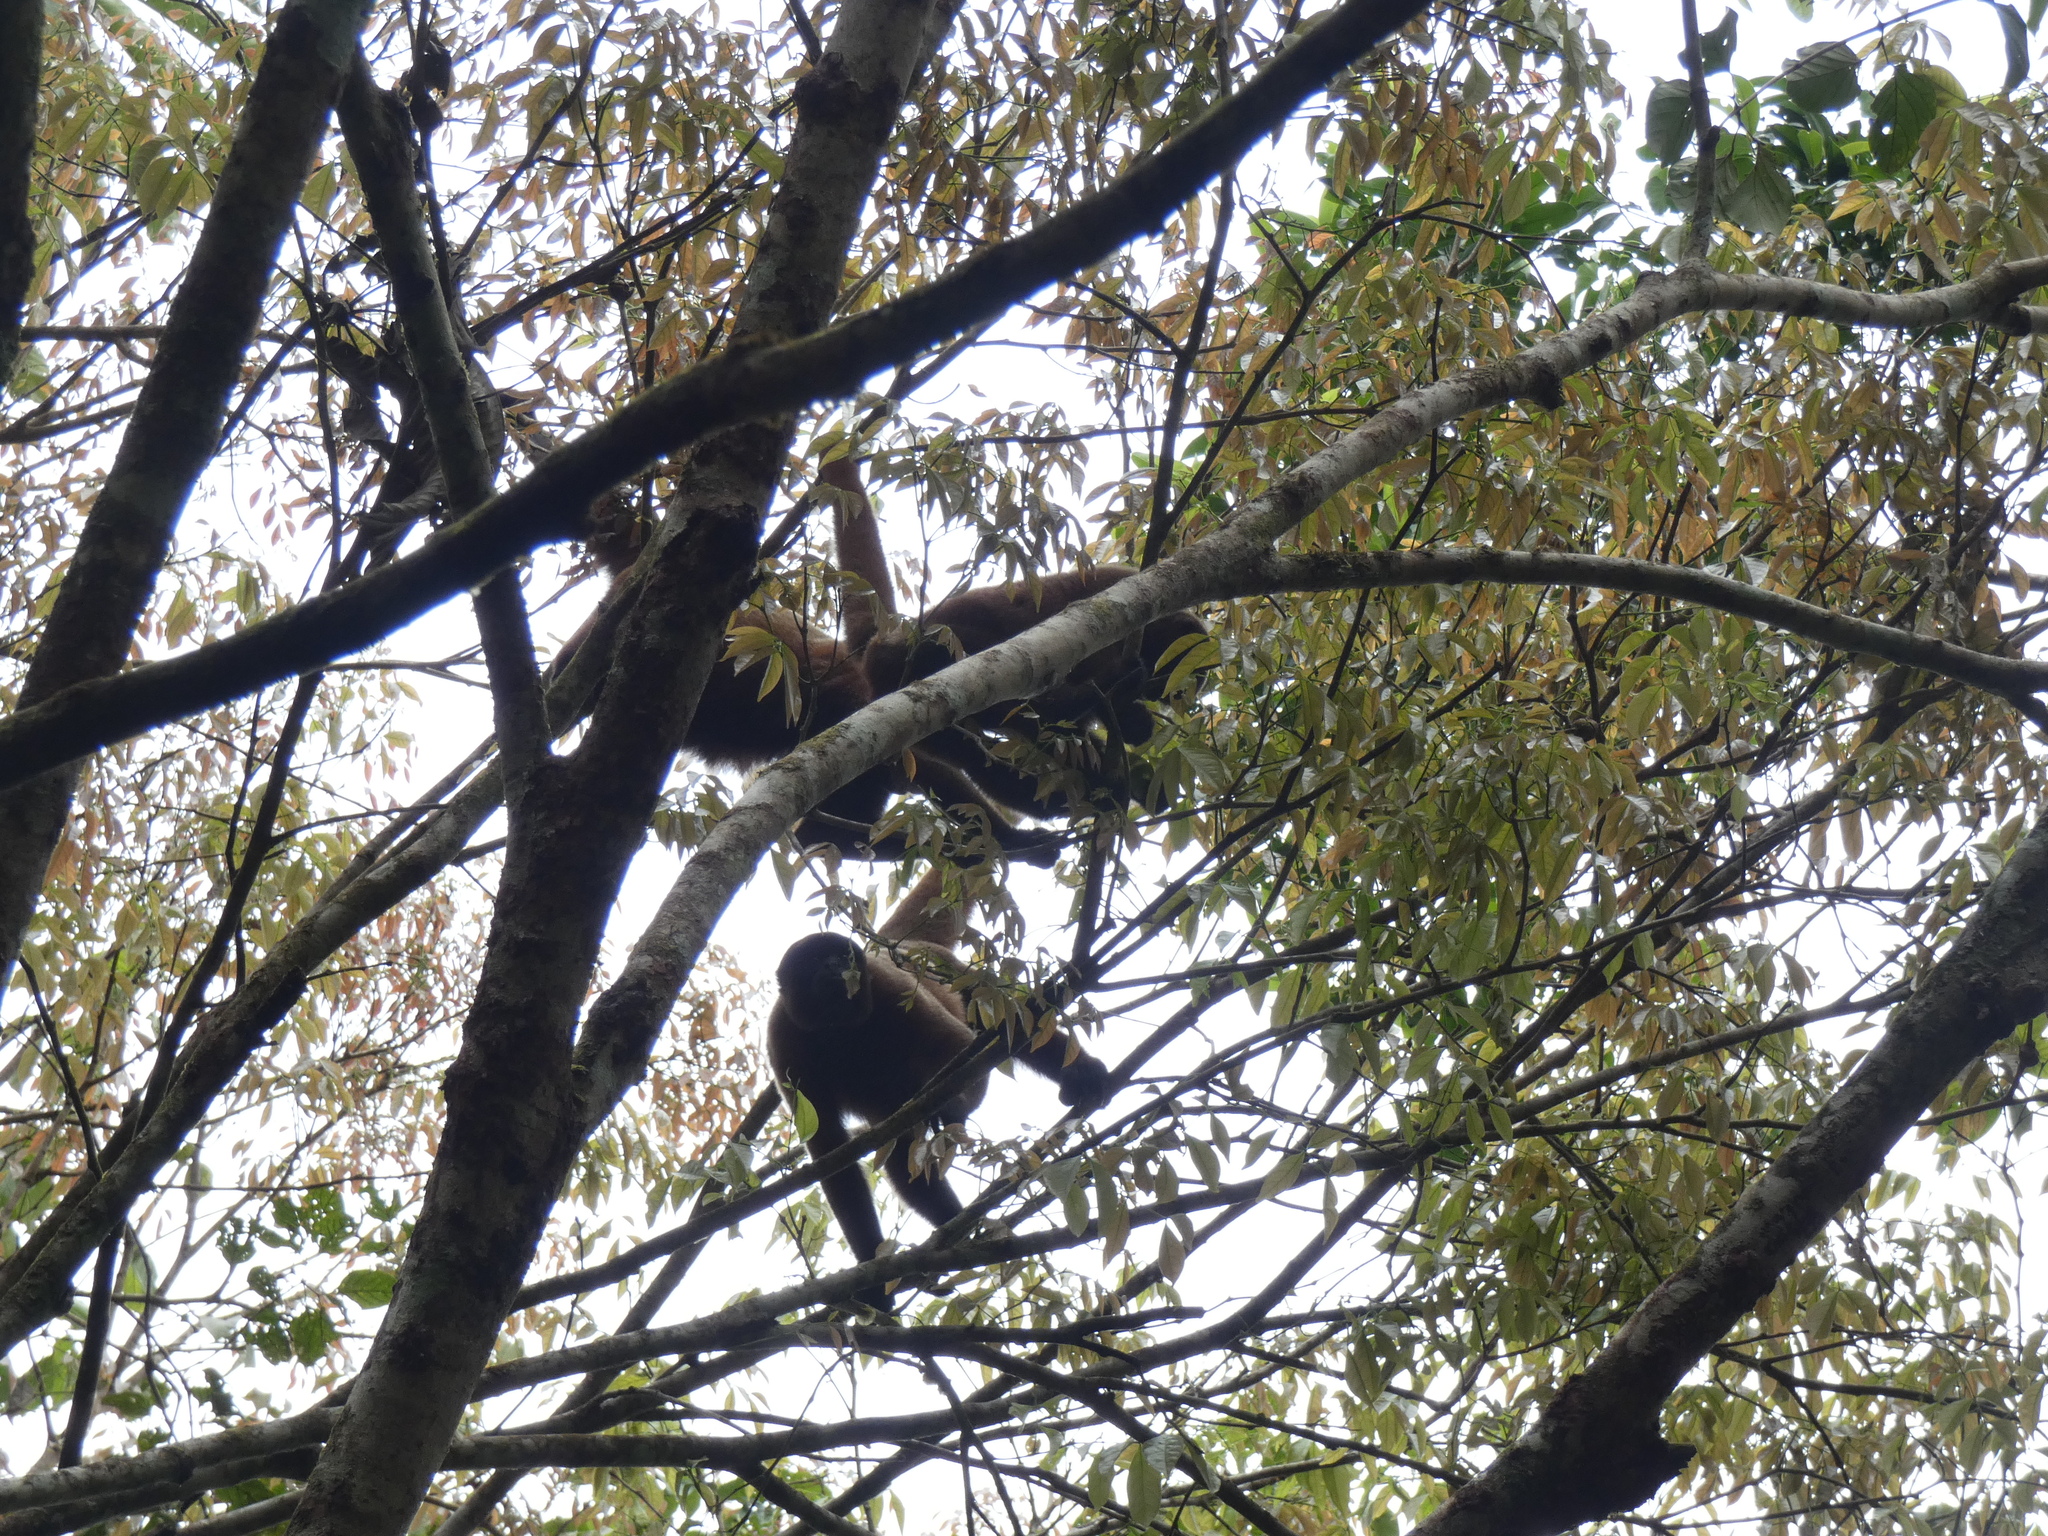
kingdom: Animalia
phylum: Chordata
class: Mammalia
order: Primates
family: Atelidae
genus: Lagothrix
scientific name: Lagothrix lagothricha
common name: Brown woolly monkey
